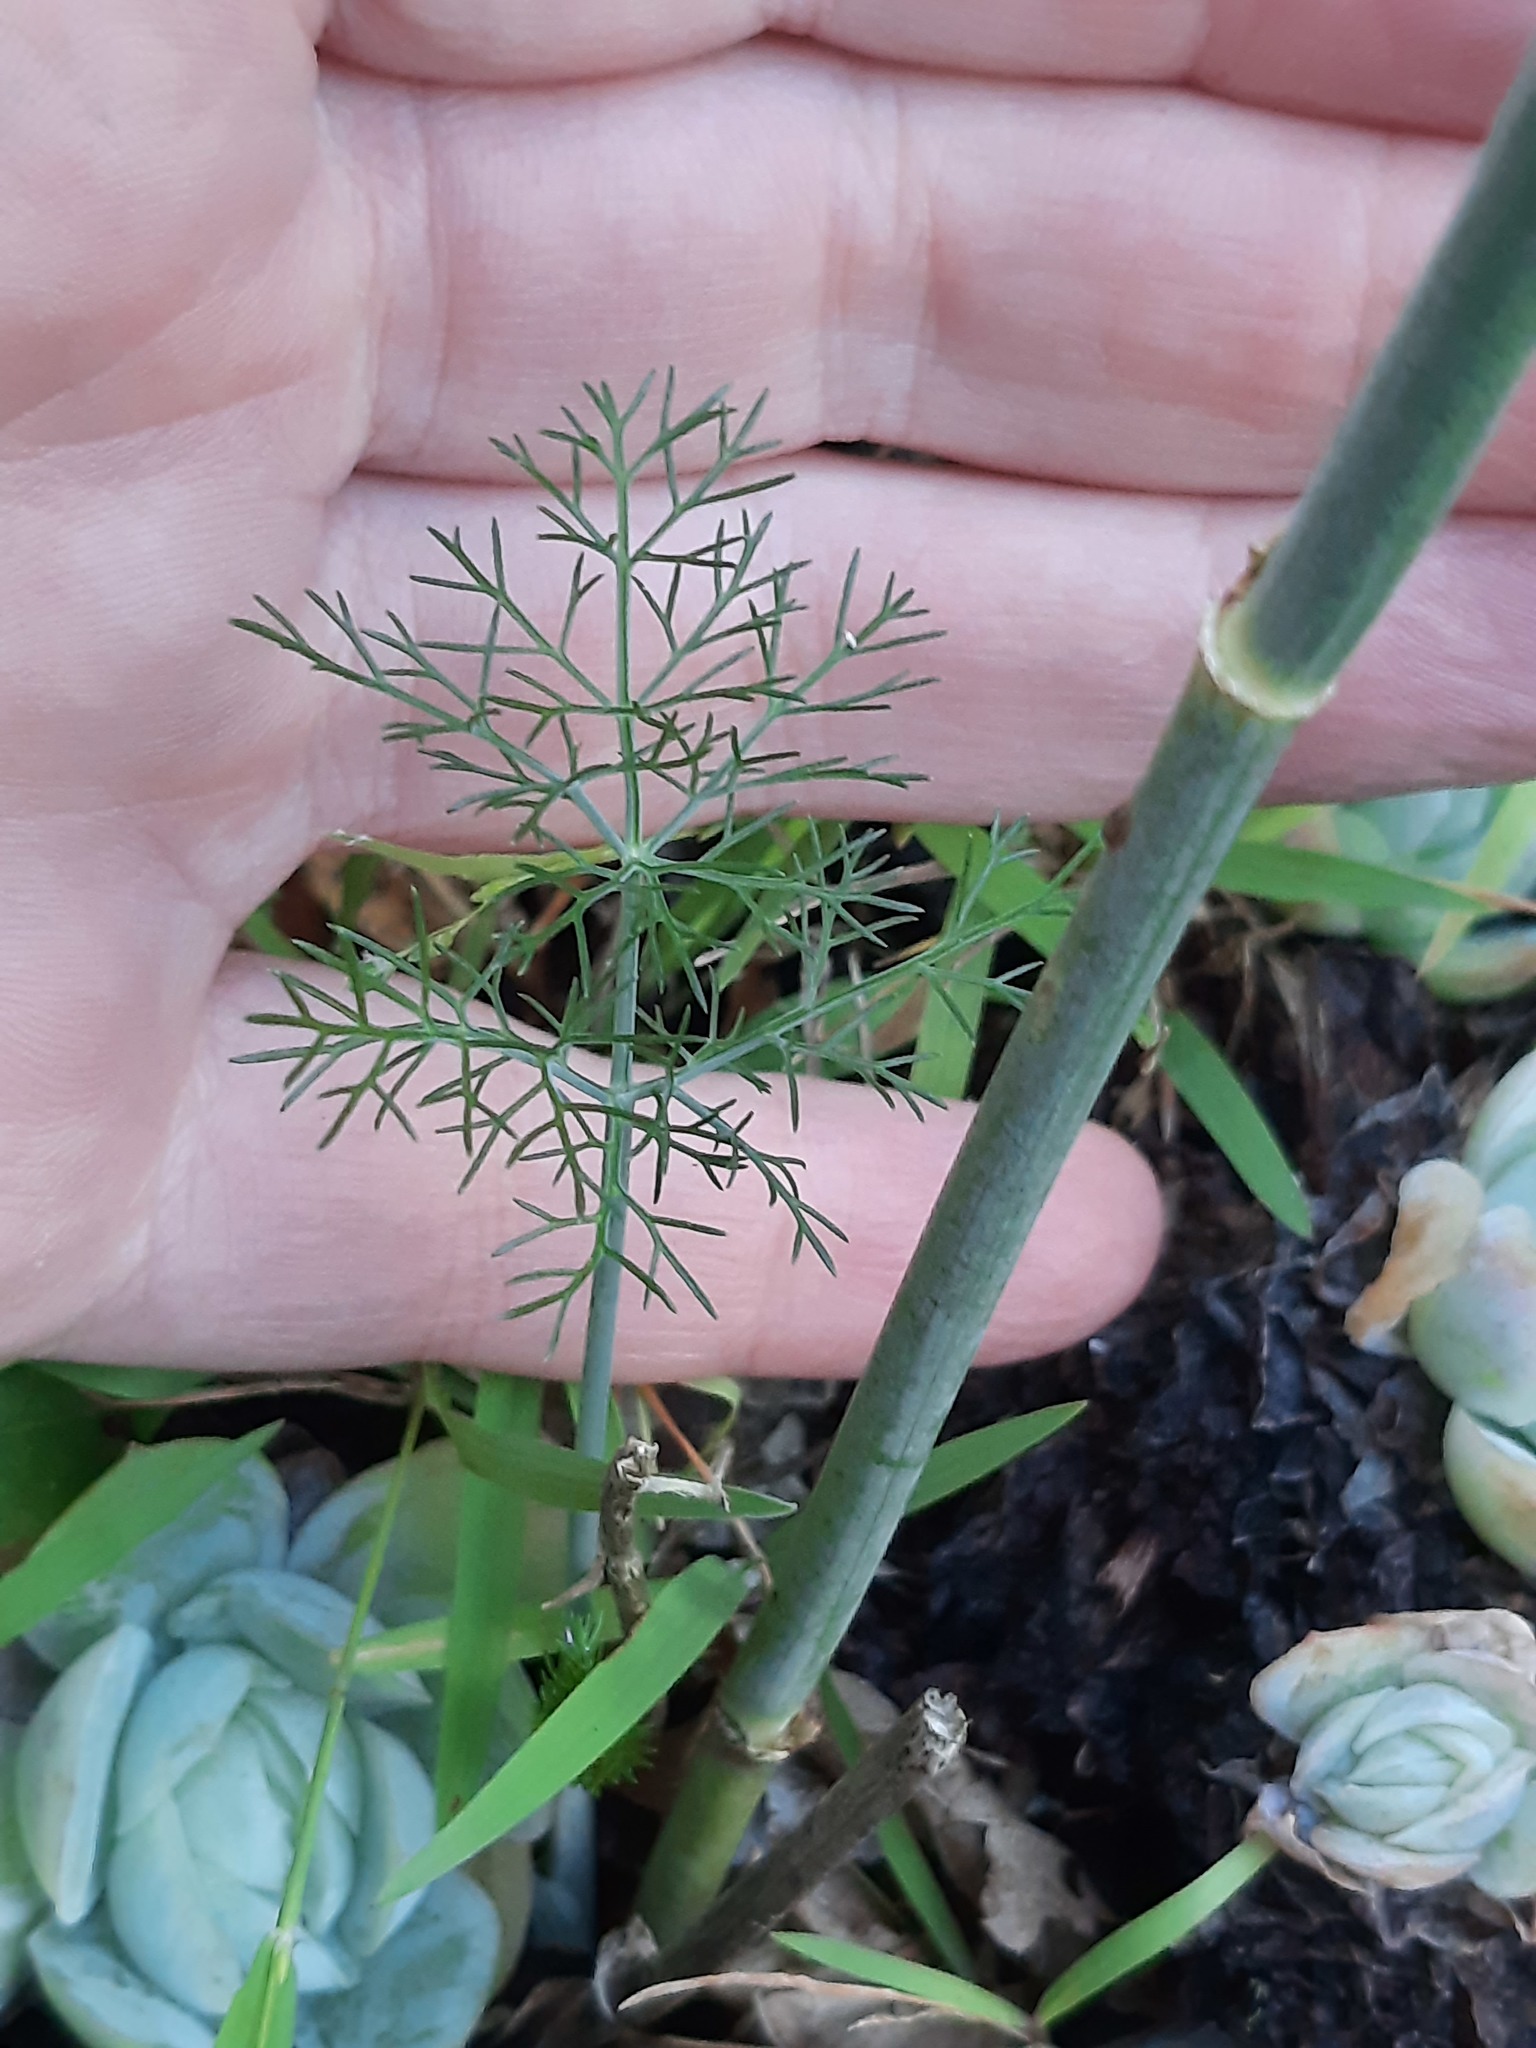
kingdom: Plantae
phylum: Tracheophyta
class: Magnoliopsida
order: Apiales
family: Apiaceae
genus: Foeniculum
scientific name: Foeniculum vulgare
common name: Fennel
